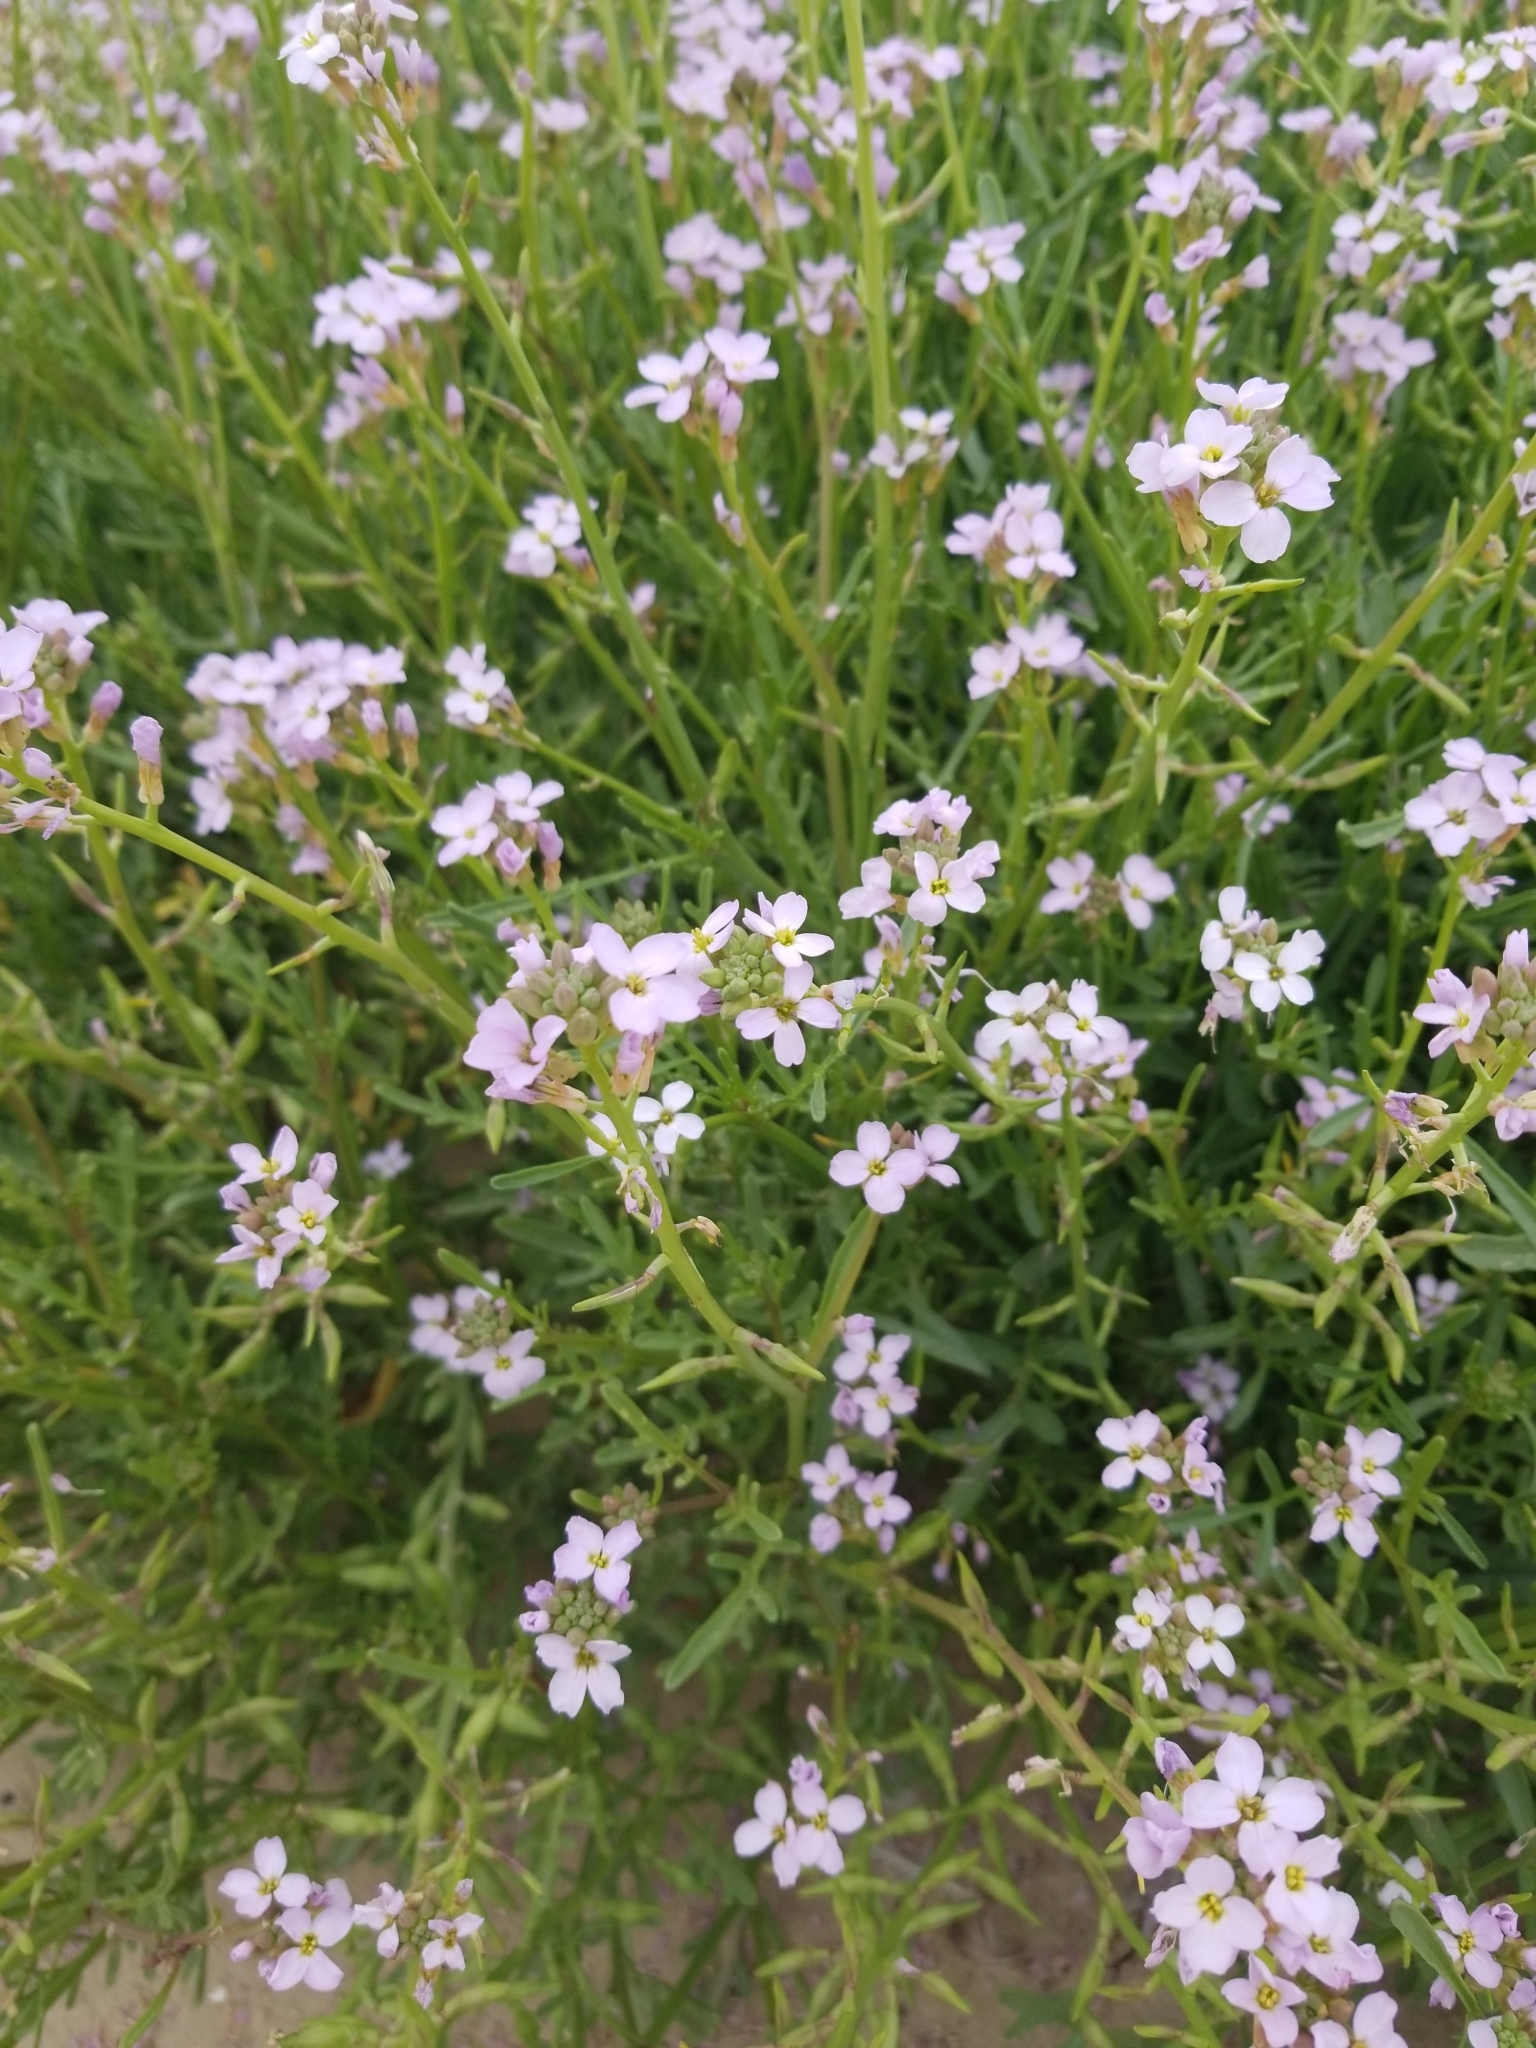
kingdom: Plantae
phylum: Tracheophyta
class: Magnoliopsida
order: Brassicales
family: Brassicaceae
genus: Cakile
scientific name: Cakile maritima
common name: Sea rocket
